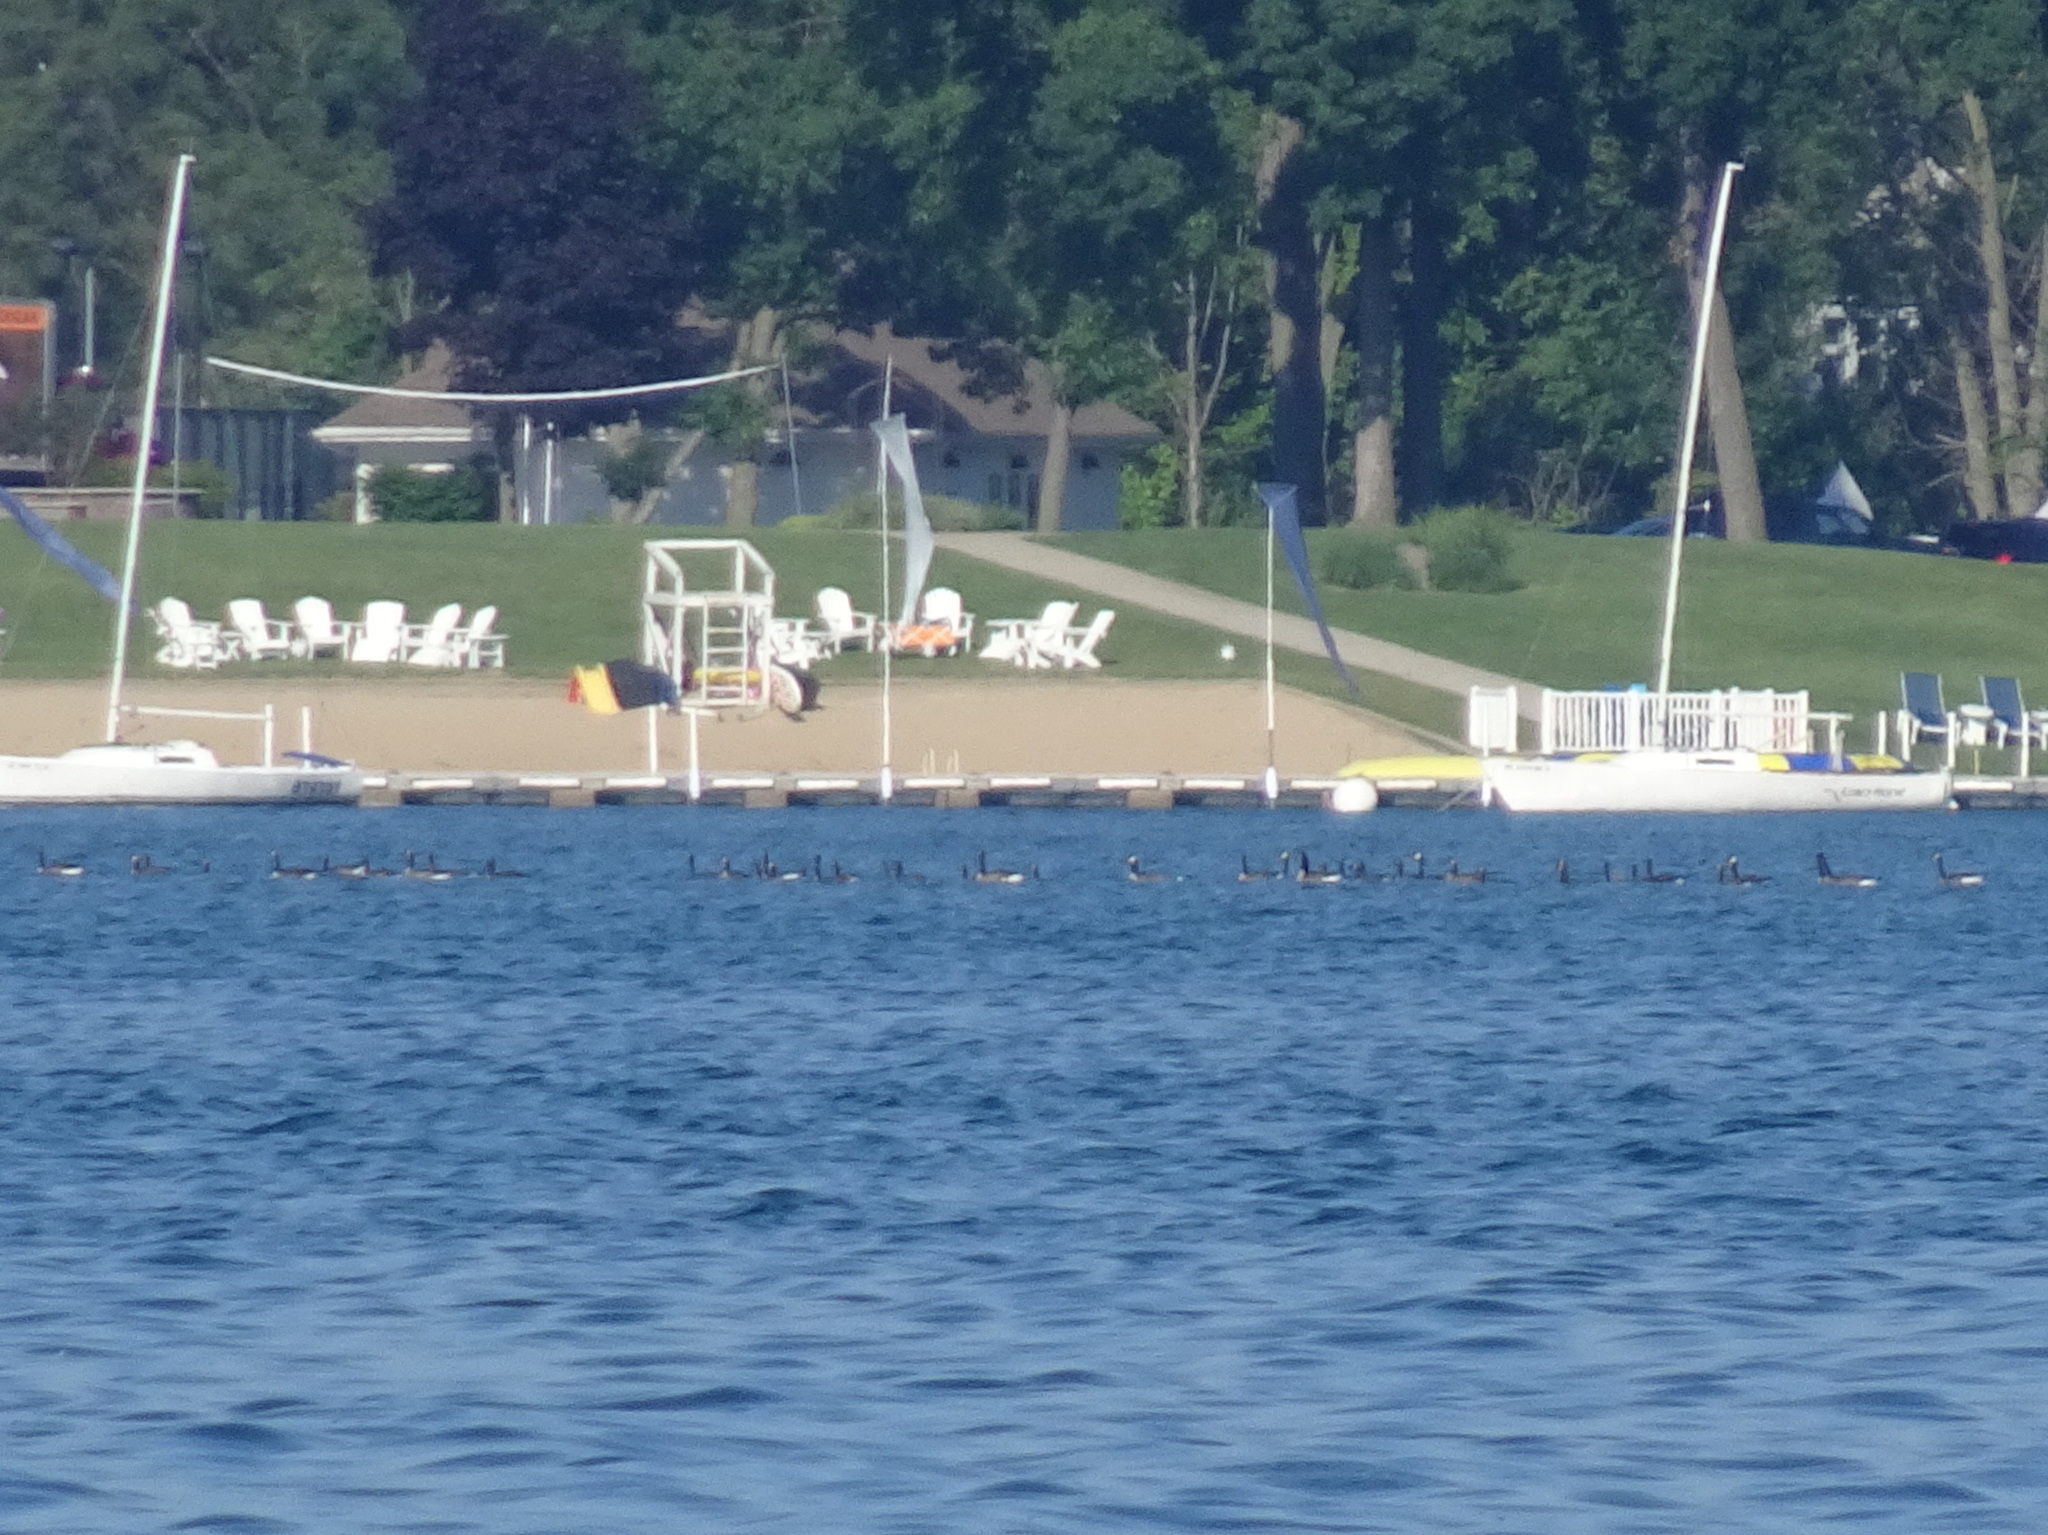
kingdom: Animalia
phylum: Chordata
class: Aves
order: Anseriformes
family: Anatidae
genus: Branta
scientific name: Branta canadensis
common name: Canada goose
